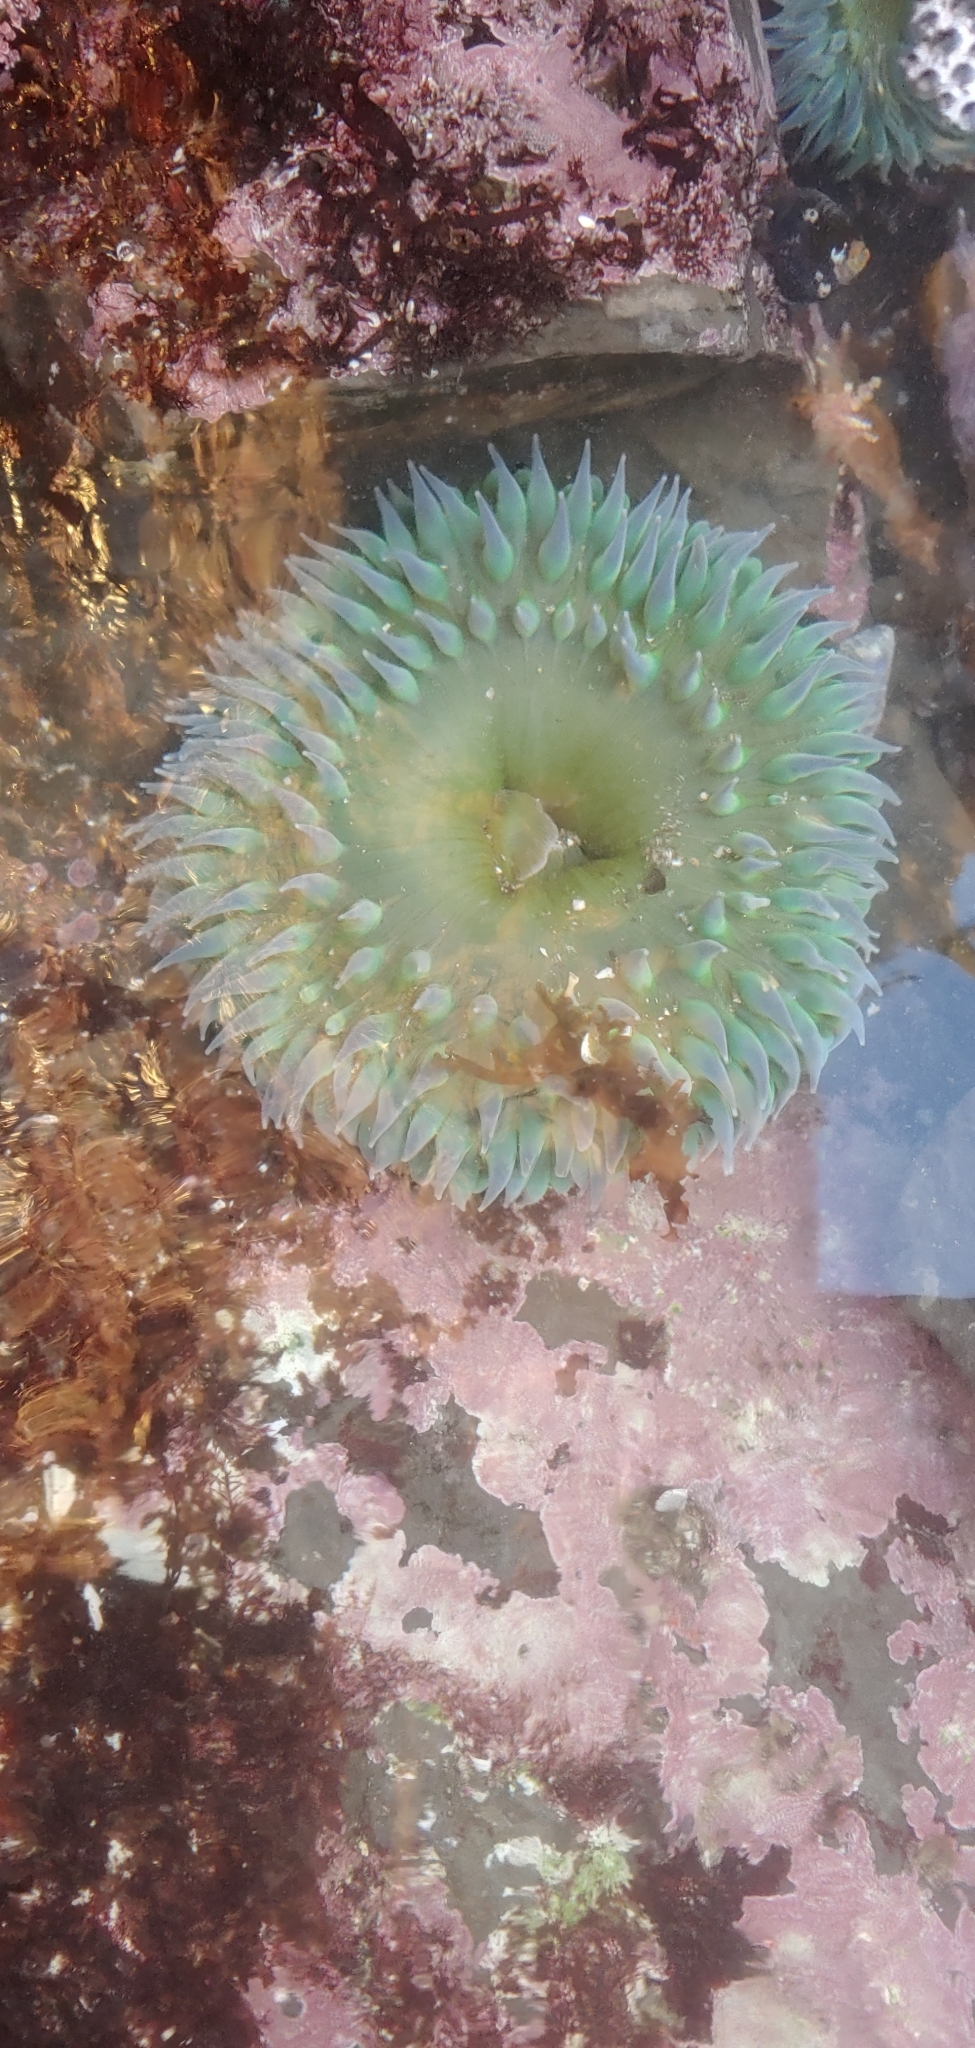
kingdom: Animalia
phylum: Cnidaria
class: Anthozoa
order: Actiniaria
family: Actiniidae
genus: Anthopleura
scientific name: Anthopleura xanthogrammica
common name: Giant green anemone
